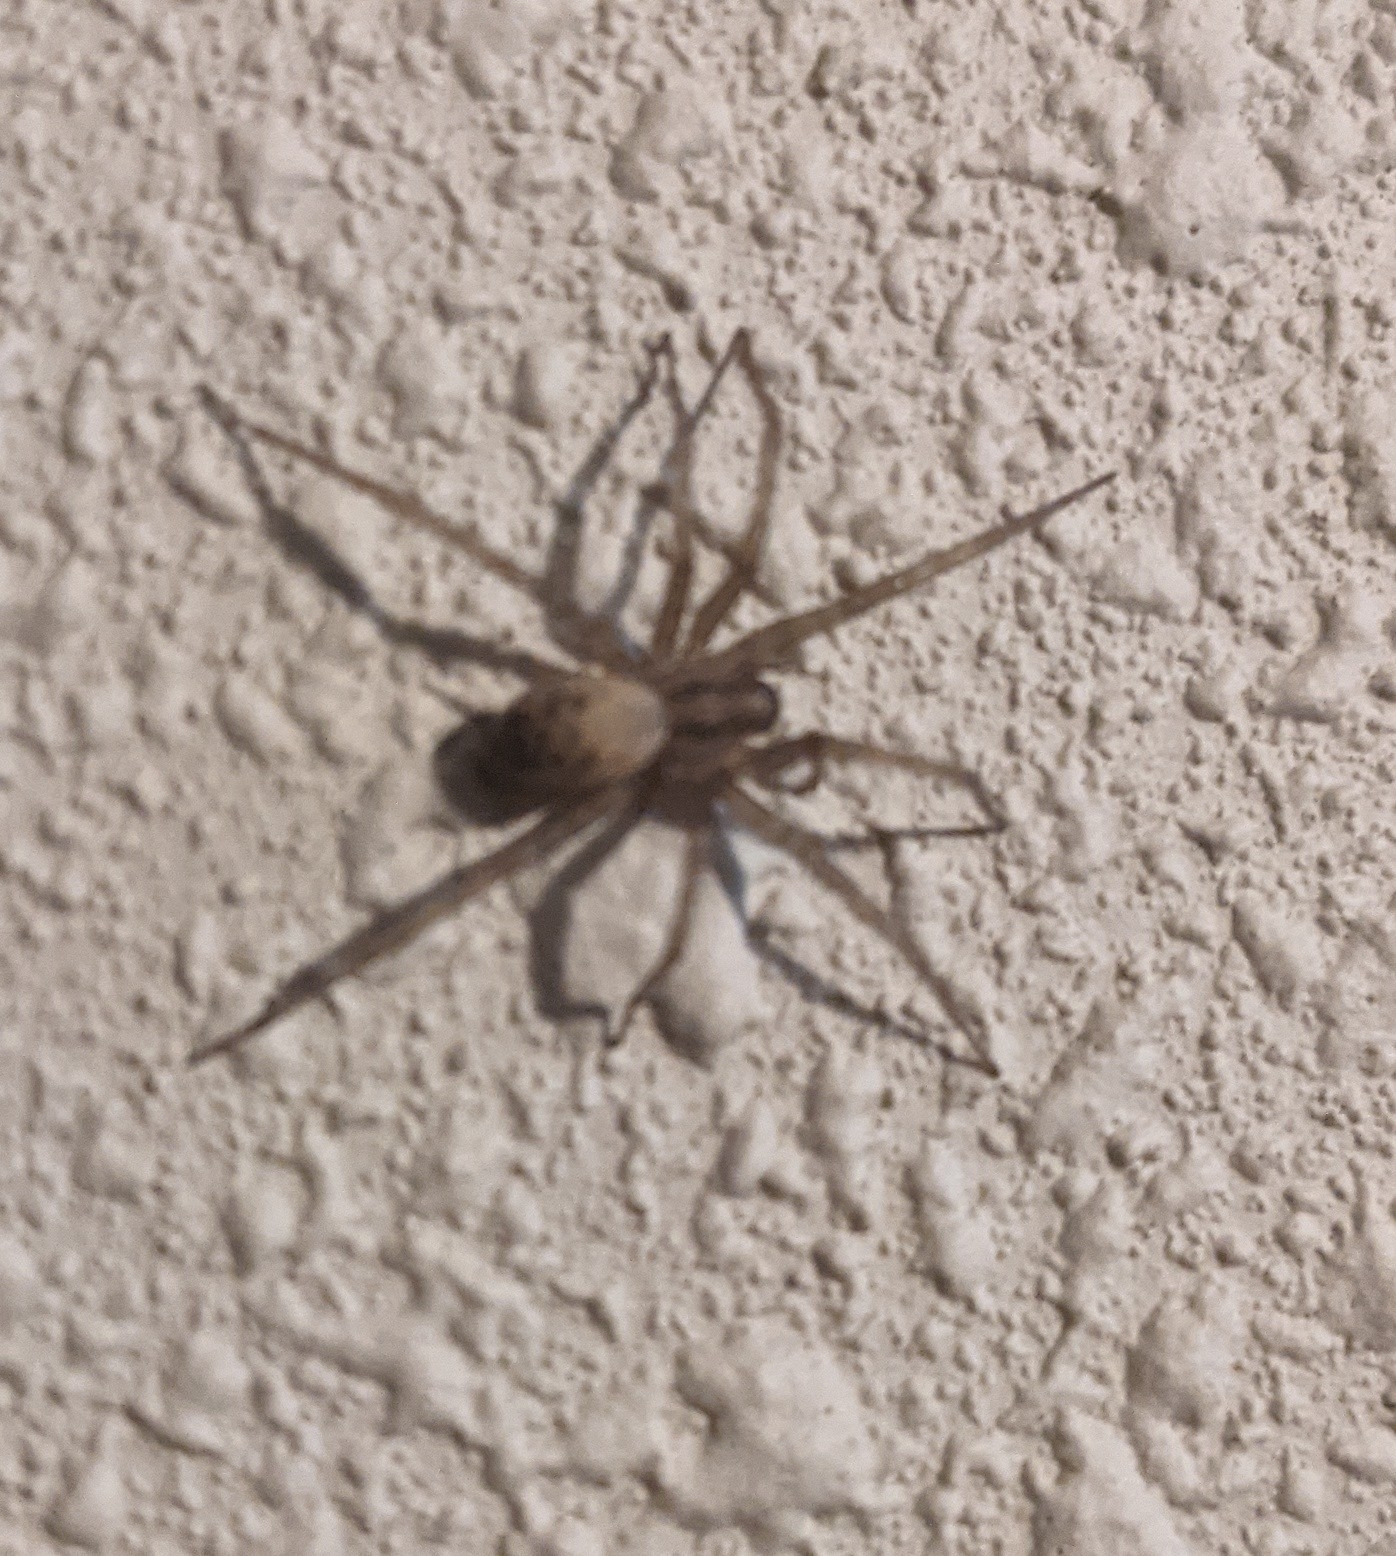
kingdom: Animalia
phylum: Arthropoda
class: Arachnida
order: Araneae
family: Agelenidae
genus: Tegenaria
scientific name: Tegenaria domestica
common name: Barn funnel weaver
